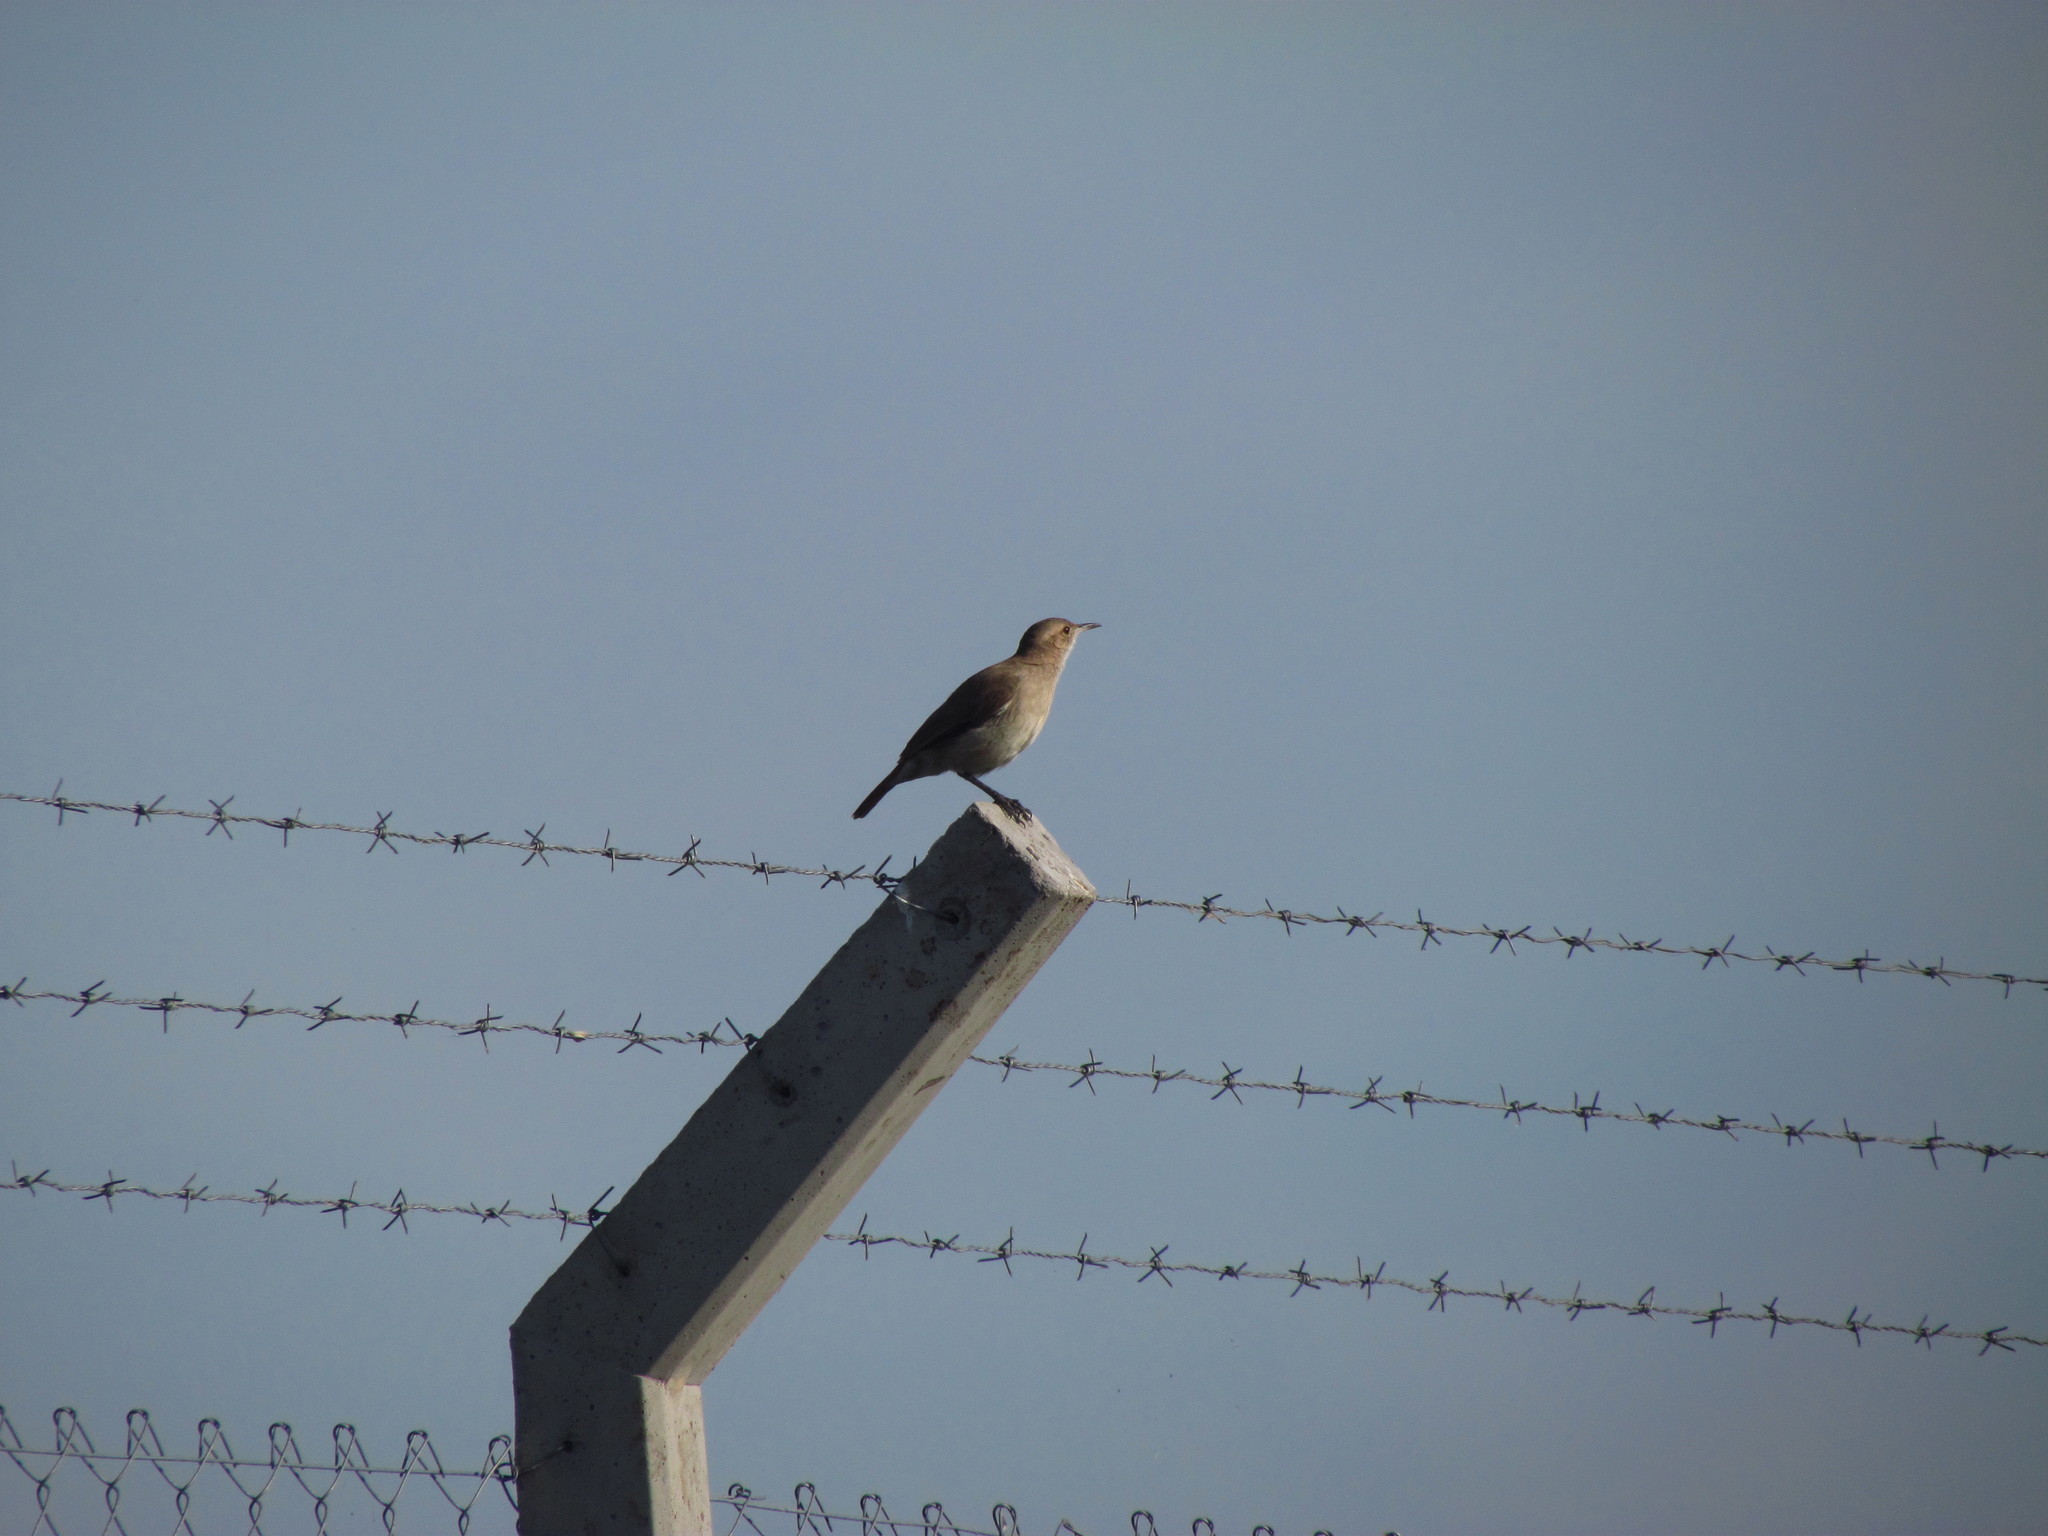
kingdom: Animalia
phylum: Chordata
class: Aves
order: Passeriformes
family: Furnariidae
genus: Furnarius
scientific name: Furnarius rufus
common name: Rufous hornero
